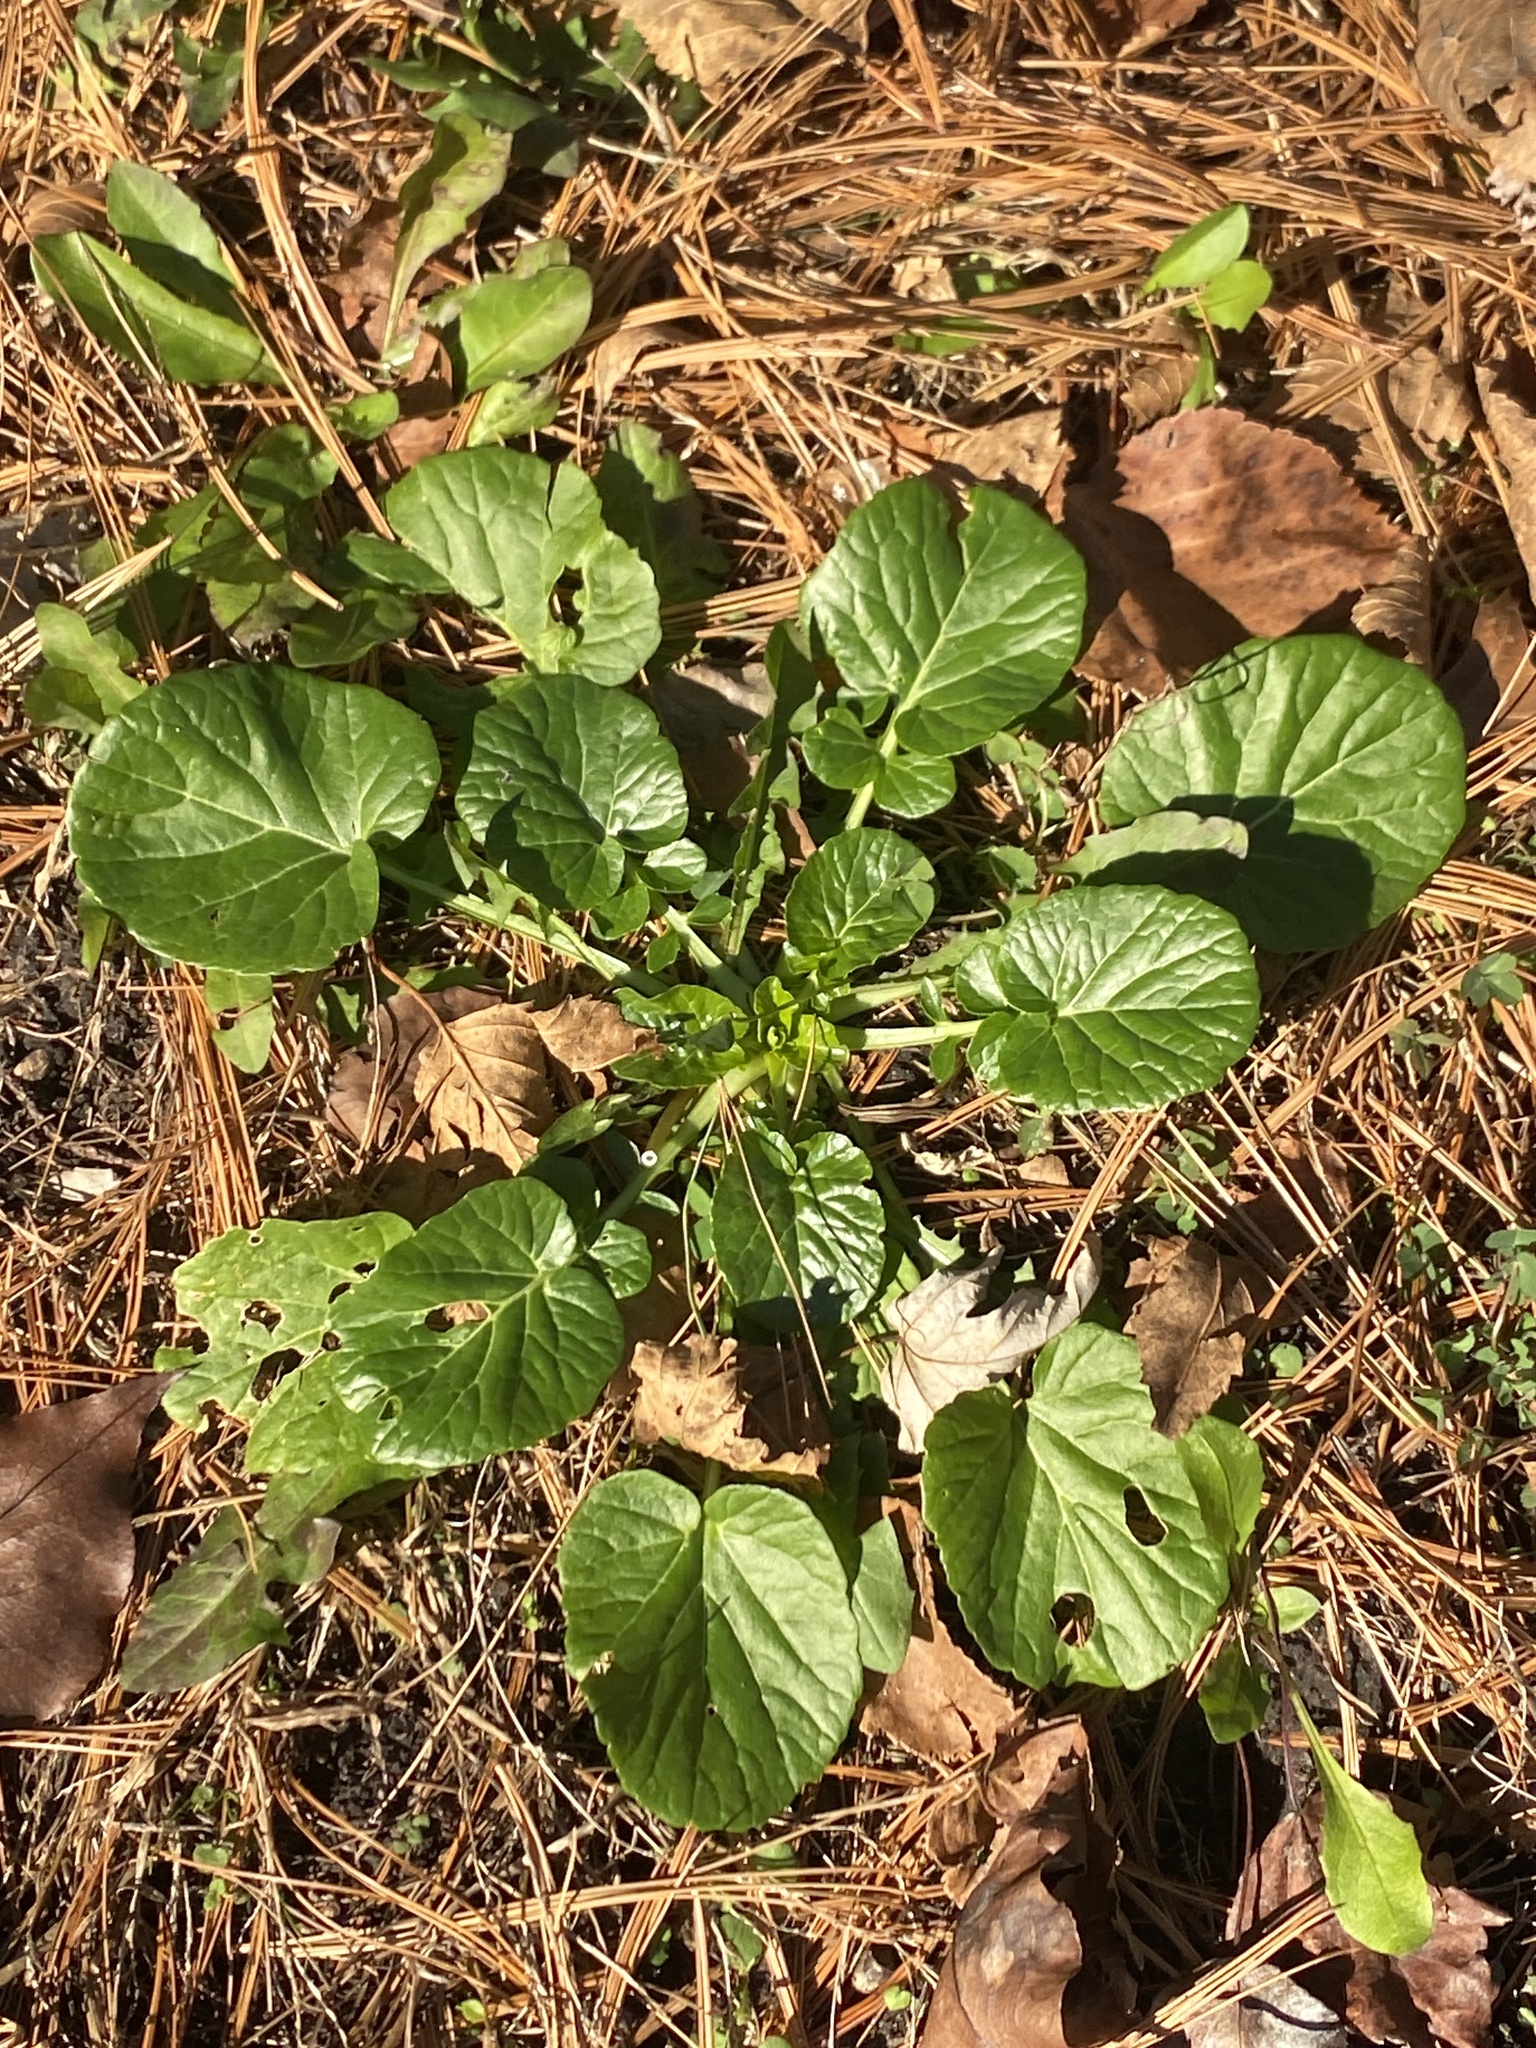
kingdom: Plantae
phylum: Tracheophyta
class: Magnoliopsida
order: Brassicales
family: Brassicaceae
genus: Barbarea
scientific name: Barbarea vulgaris
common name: Cressy-greens
